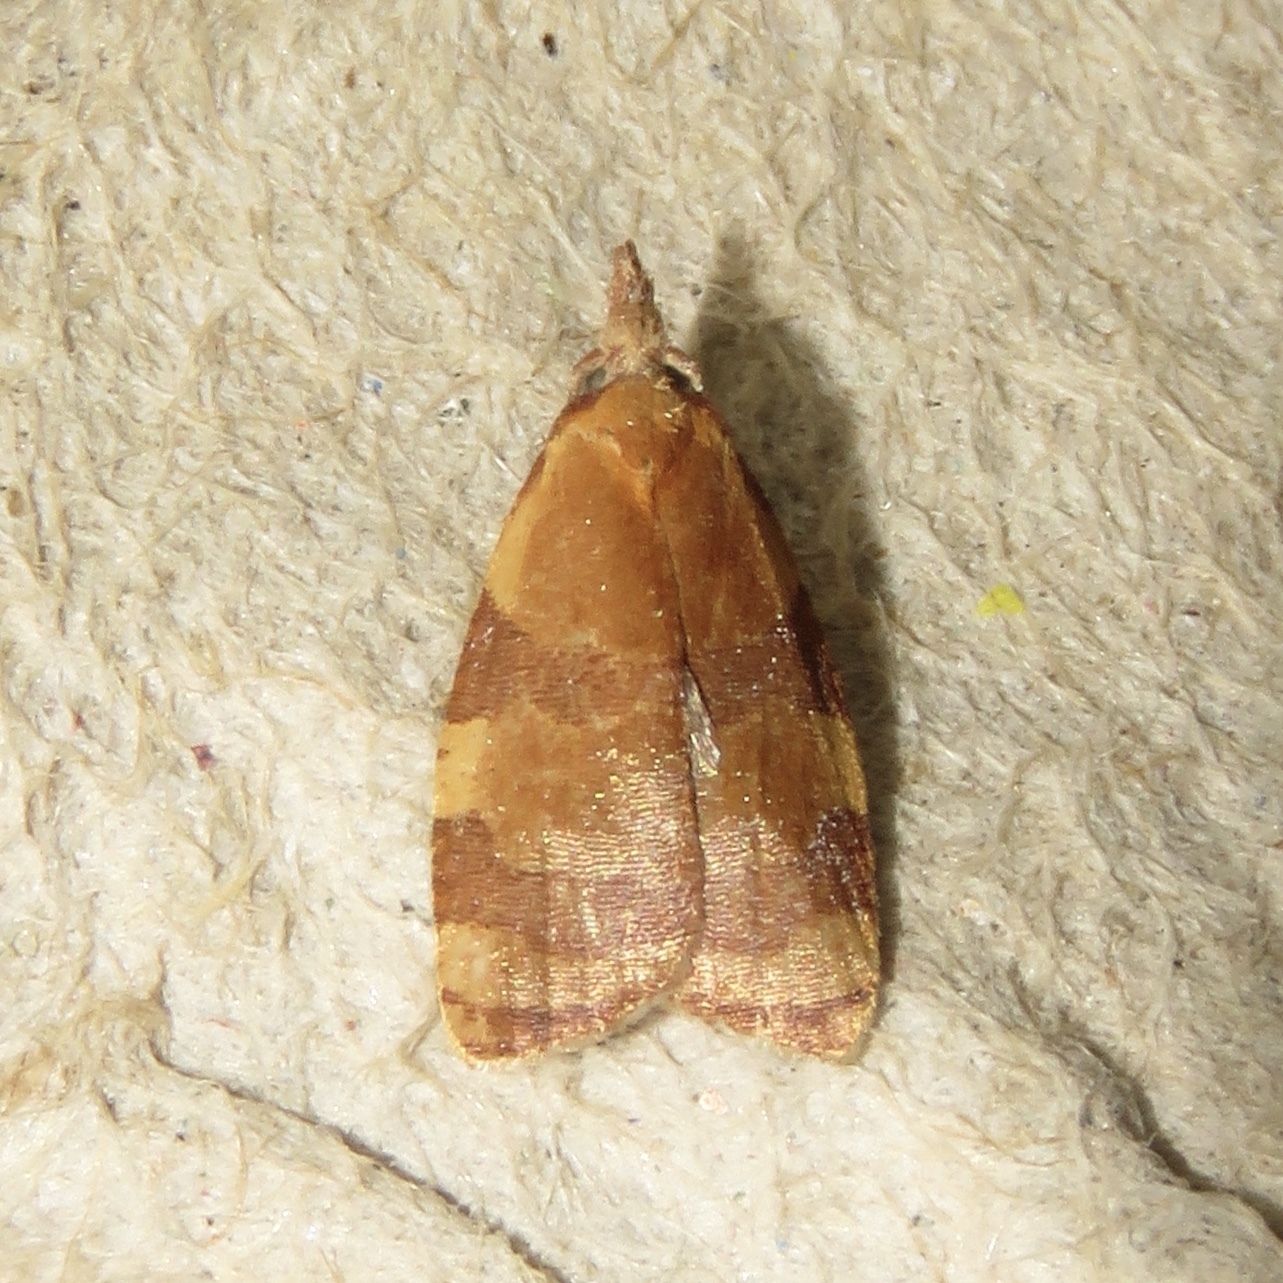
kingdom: Animalia
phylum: Arthropoda
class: Insecta
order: Lepidoptera
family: Tortricidae
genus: Cenopis
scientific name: Cenopis diluticostana
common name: Spring dead-leaf roller moth
